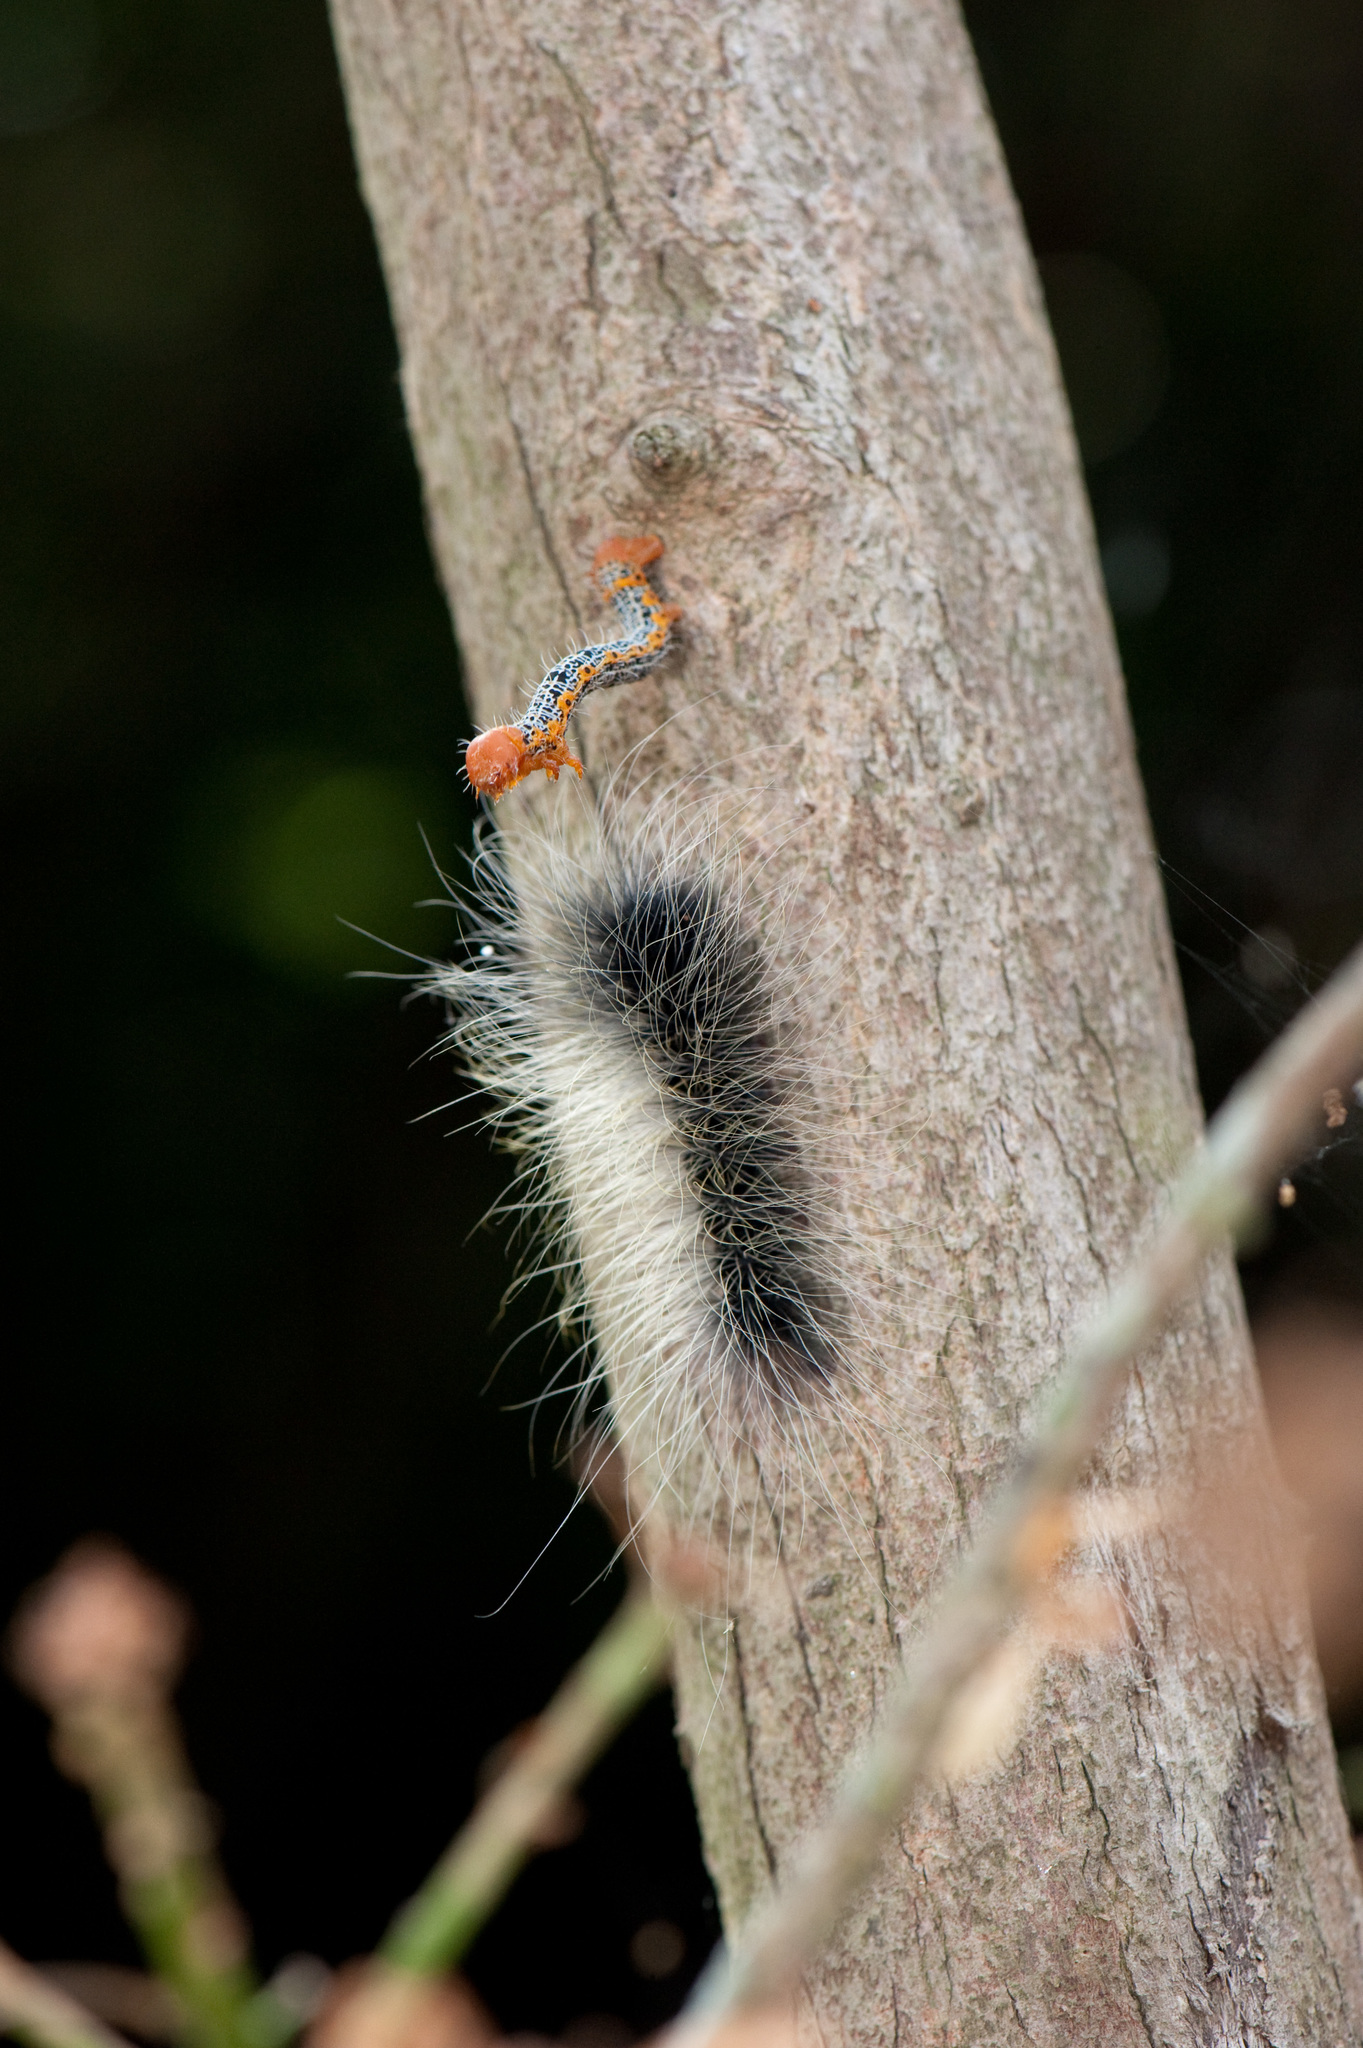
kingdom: Animalia
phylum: Arthropoda
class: Insecta
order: Lepidoptera
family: Erebidae
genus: Macrobrochis
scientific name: Macrobrochis gigas
